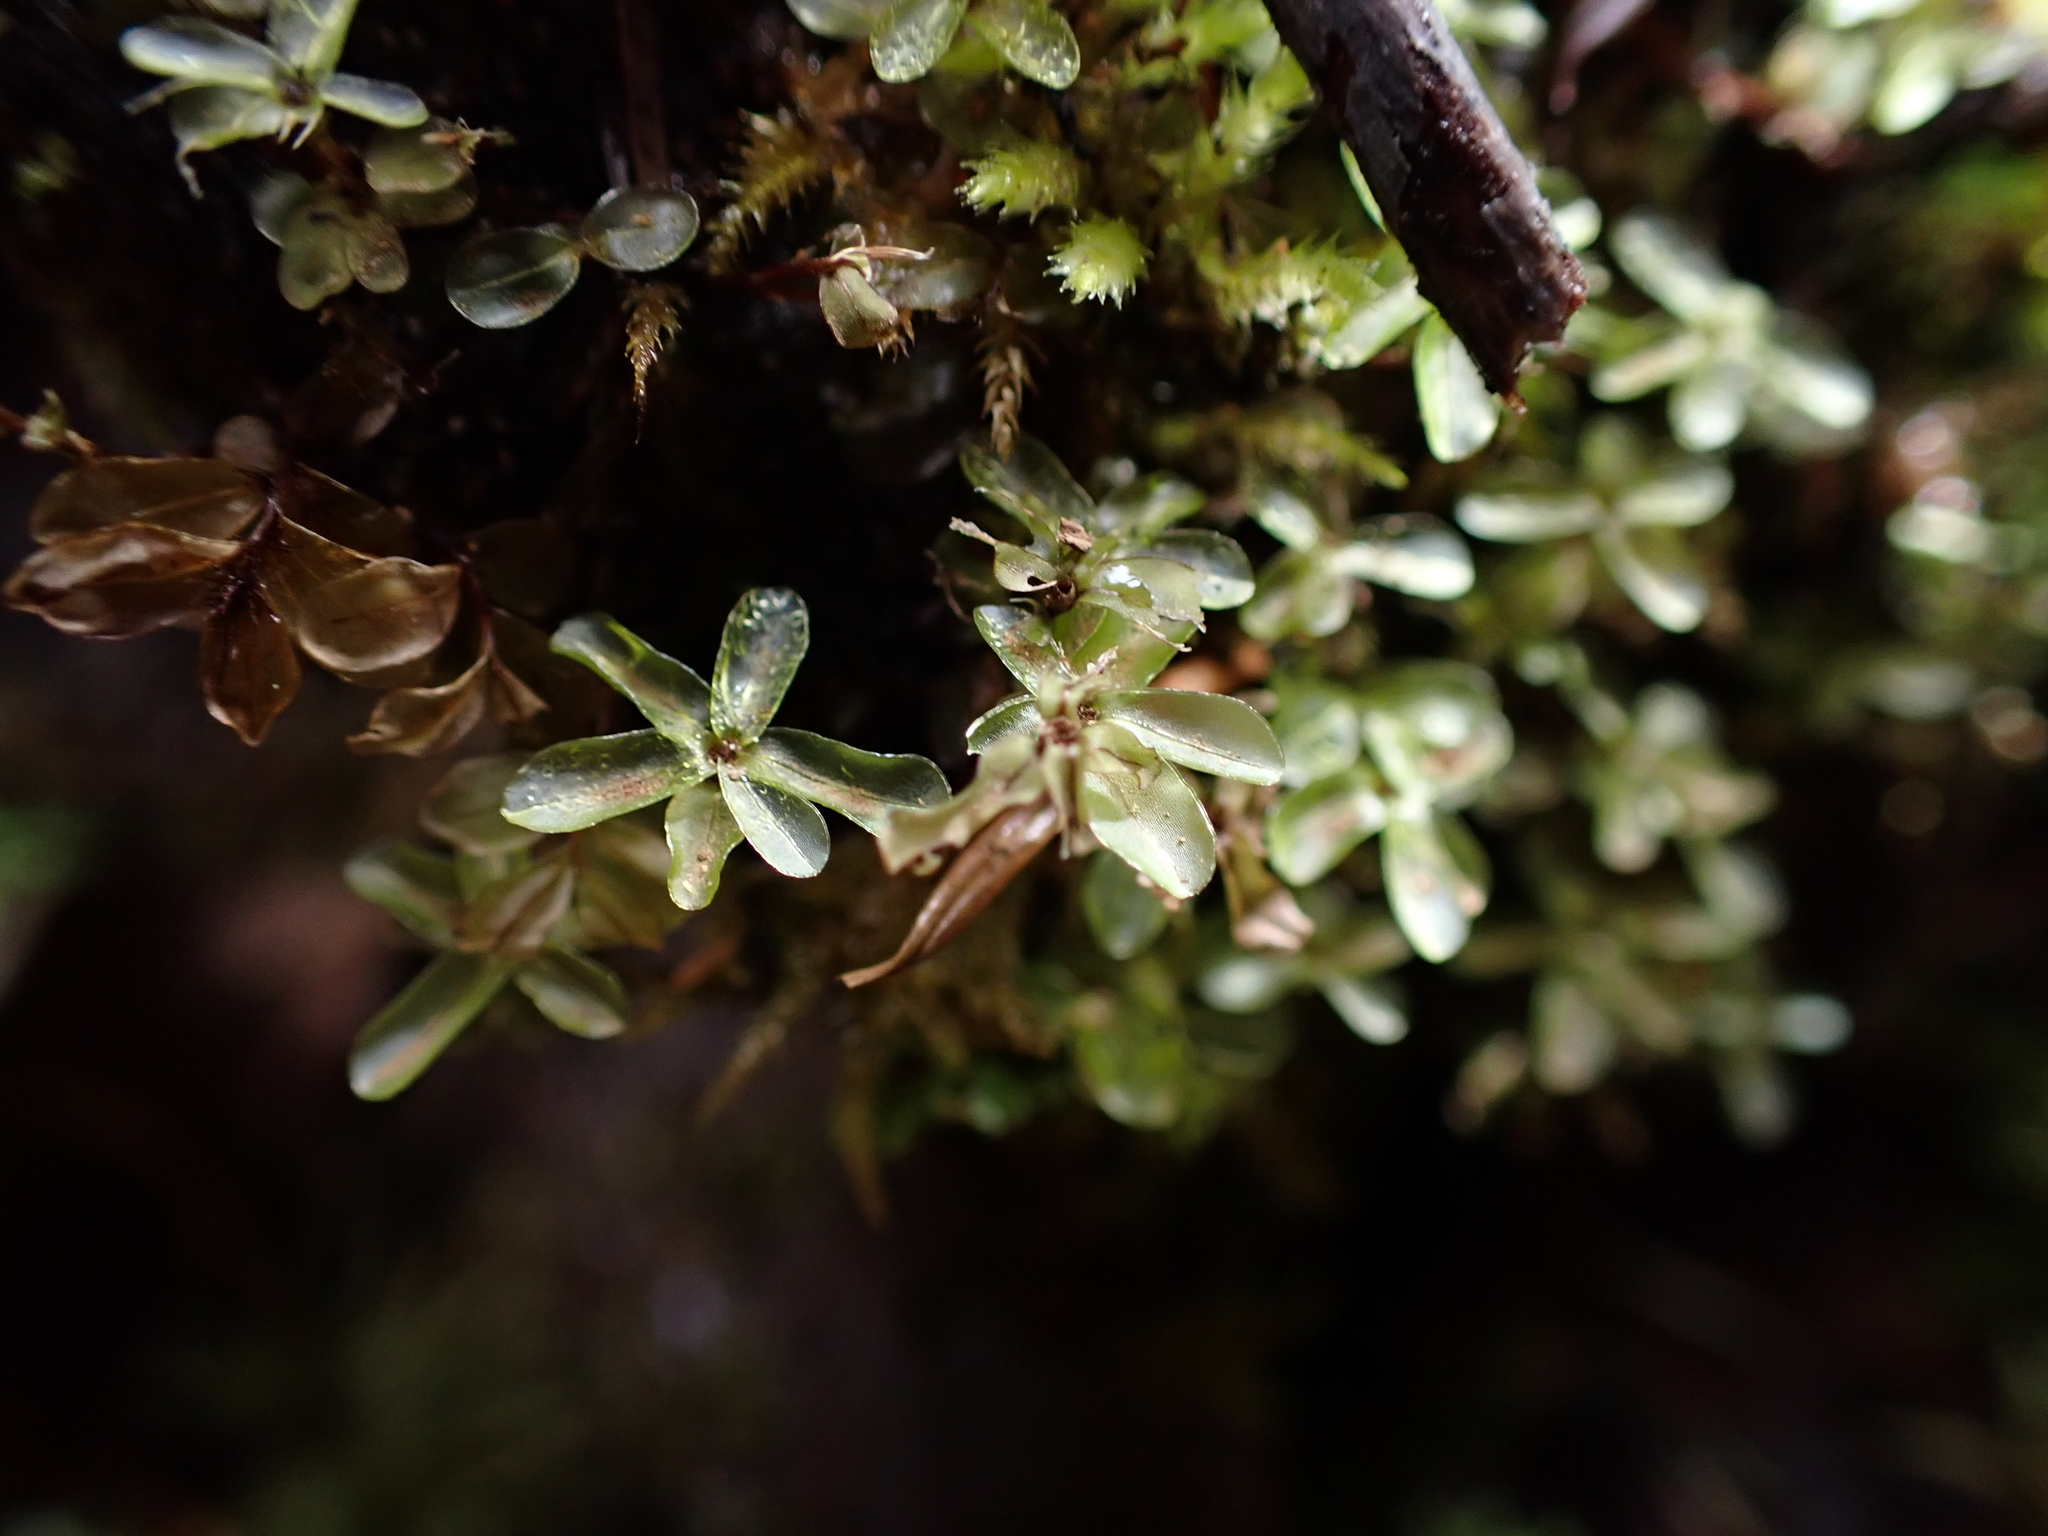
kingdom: Plantae
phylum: Bryophyta
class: Bryopsida
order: Bryales
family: Mniaceae
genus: Rhizomnium
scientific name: Rhizomnium glabrescens
